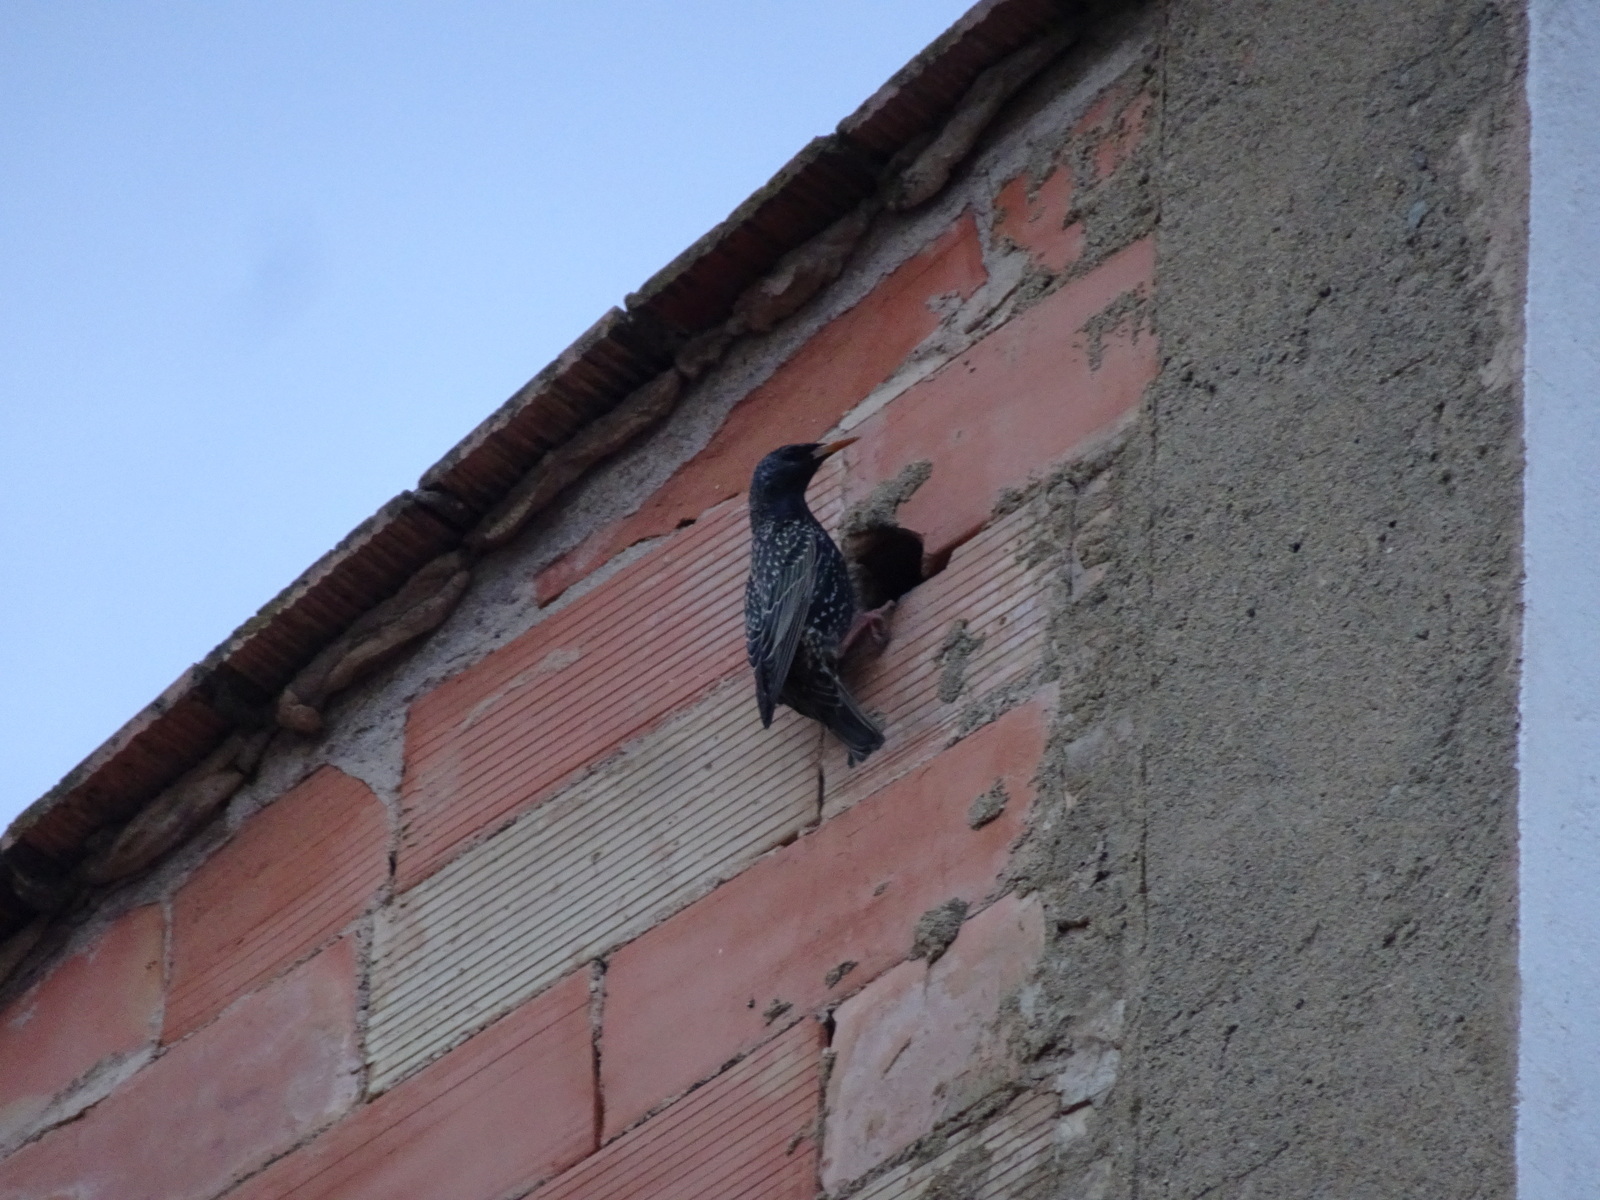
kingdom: Animalia
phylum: Chordata
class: Aves
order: Passeriformes
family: Sturnidae
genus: Sturnus
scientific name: Sturnus vulgaris
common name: Common starling
